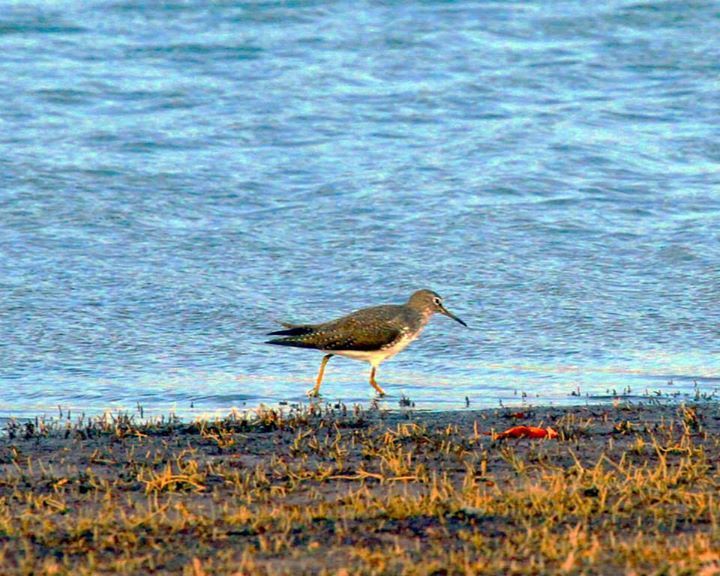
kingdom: Animalia
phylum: Chordata
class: Aves
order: Charadriiformes
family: Scolopacidae
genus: Tringa
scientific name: Tringa ochropus
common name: Green sandpiper
